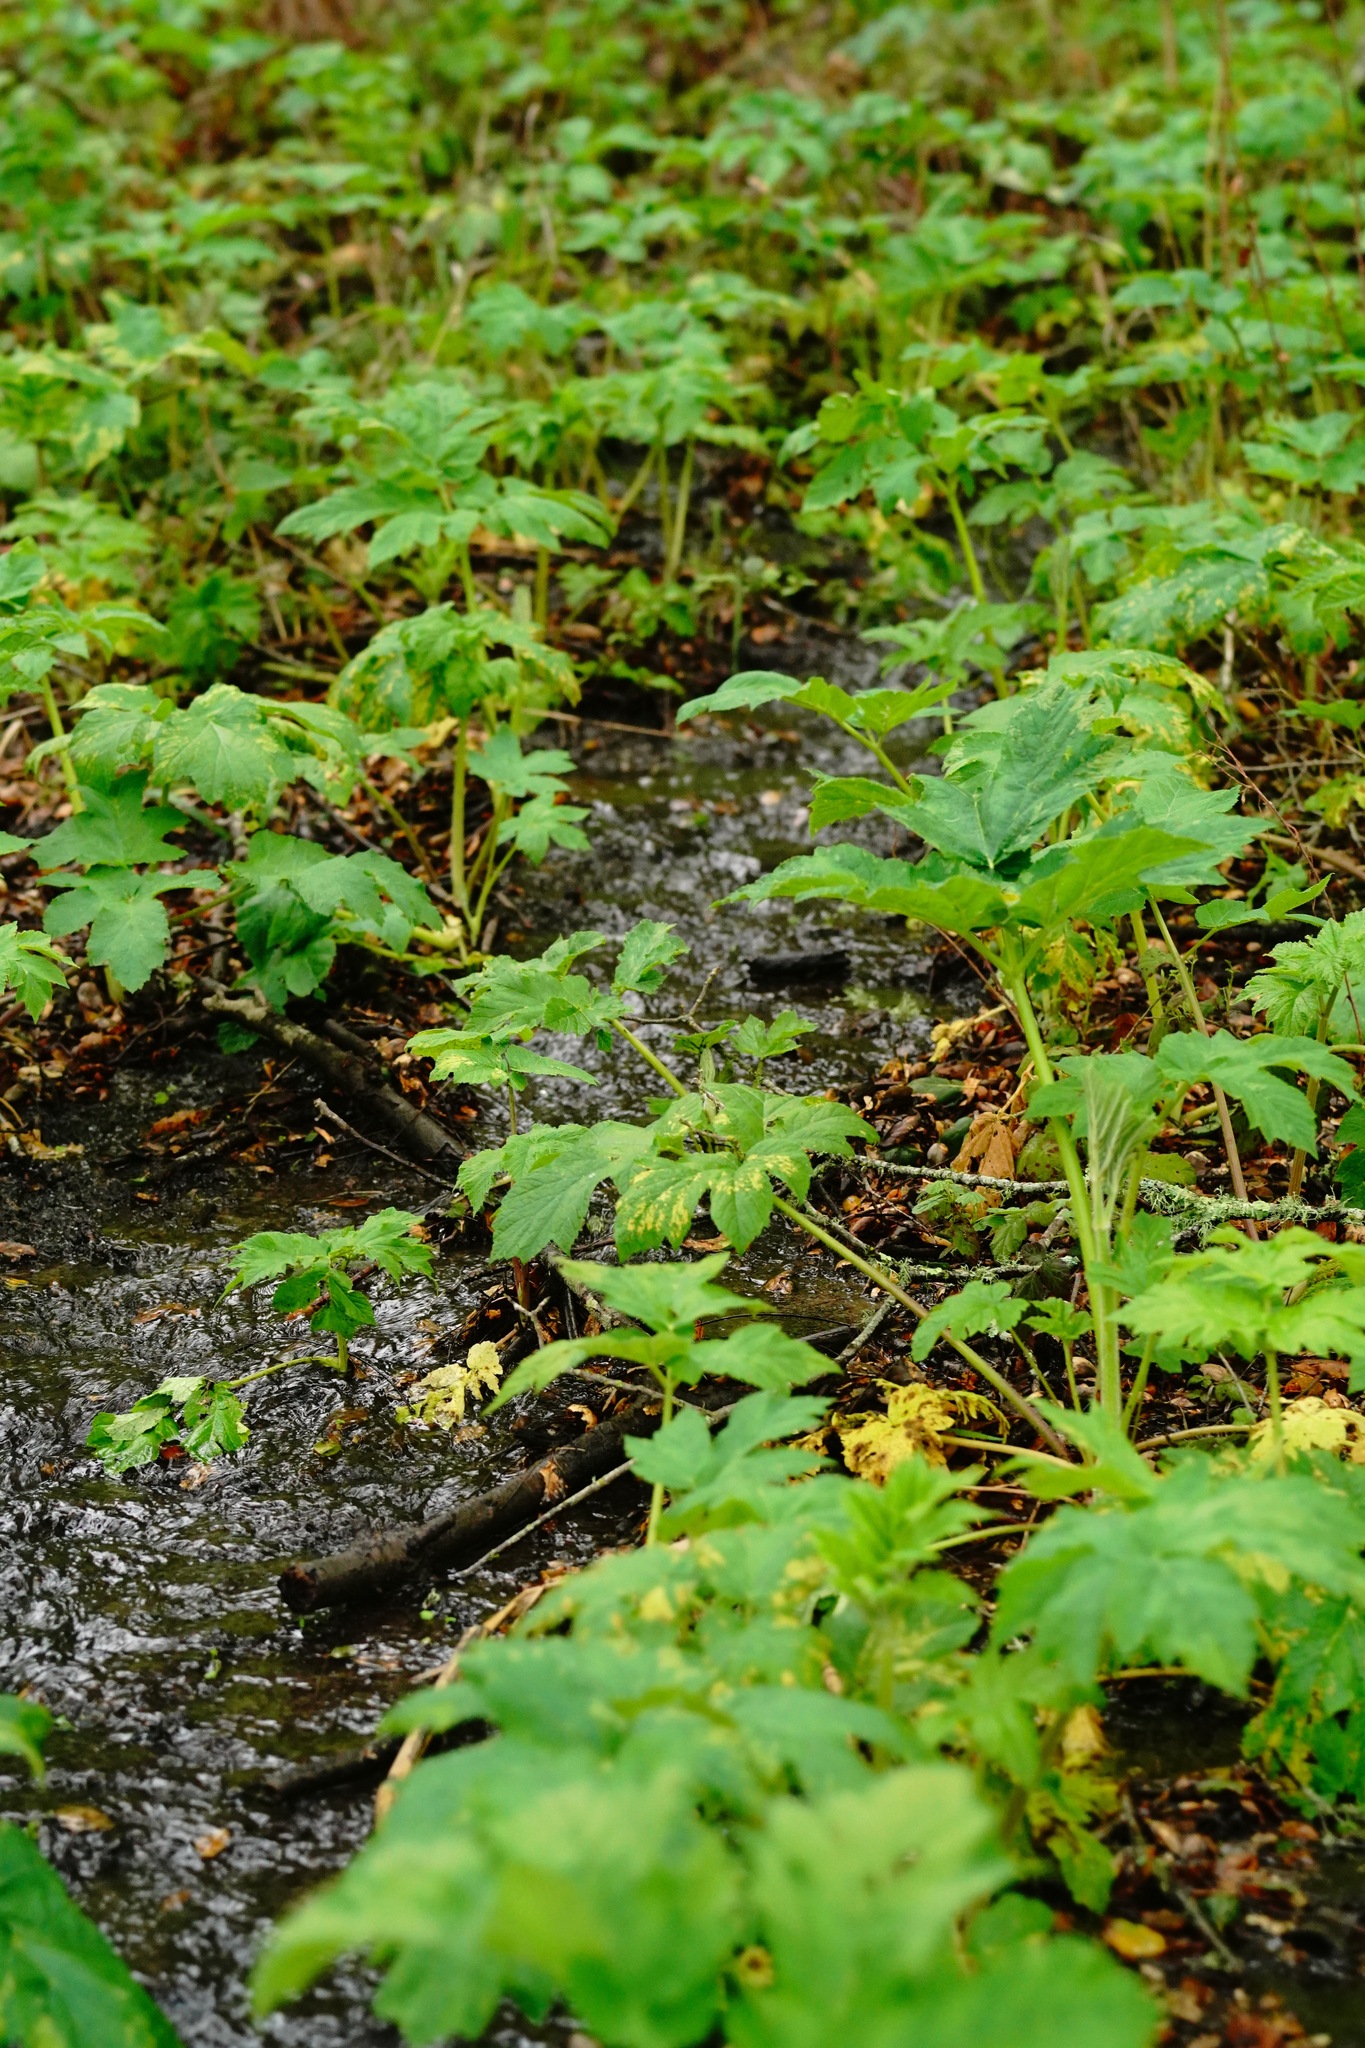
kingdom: Plantae
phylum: Tracheophyta
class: Magnoliopsida
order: Apiales
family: Apiaceae
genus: Heracleum
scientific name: Heracleum maximum
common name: American cow parsnip
